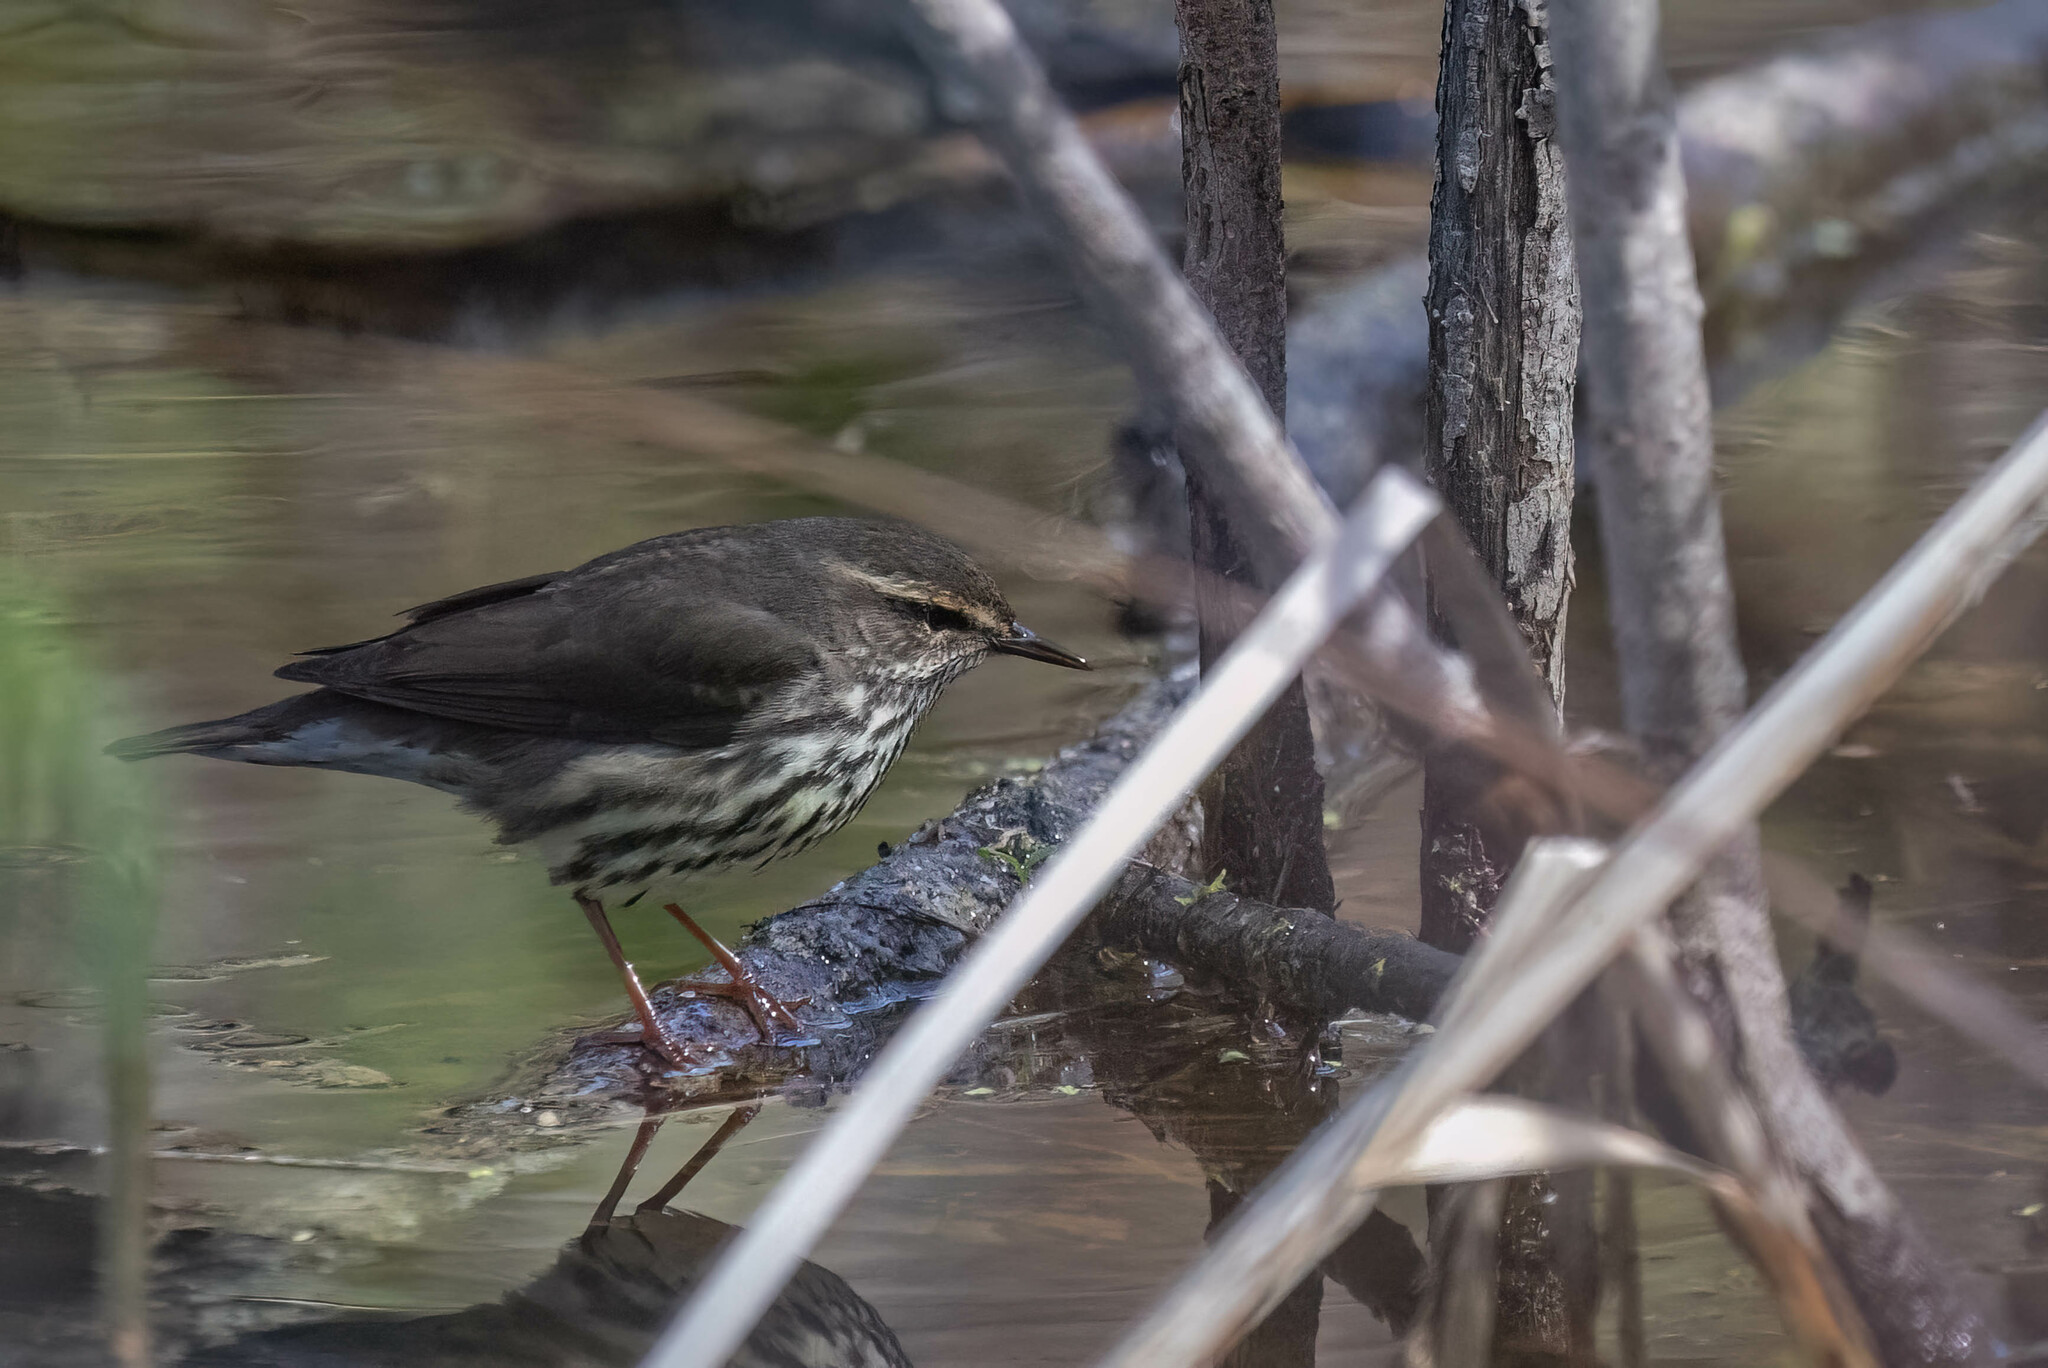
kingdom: Animalia
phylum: Chordata
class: Aves
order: Passeriformes
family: Parulidae
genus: Parkesia
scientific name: Parkesia noveboracensis
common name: Northern waterthrush
